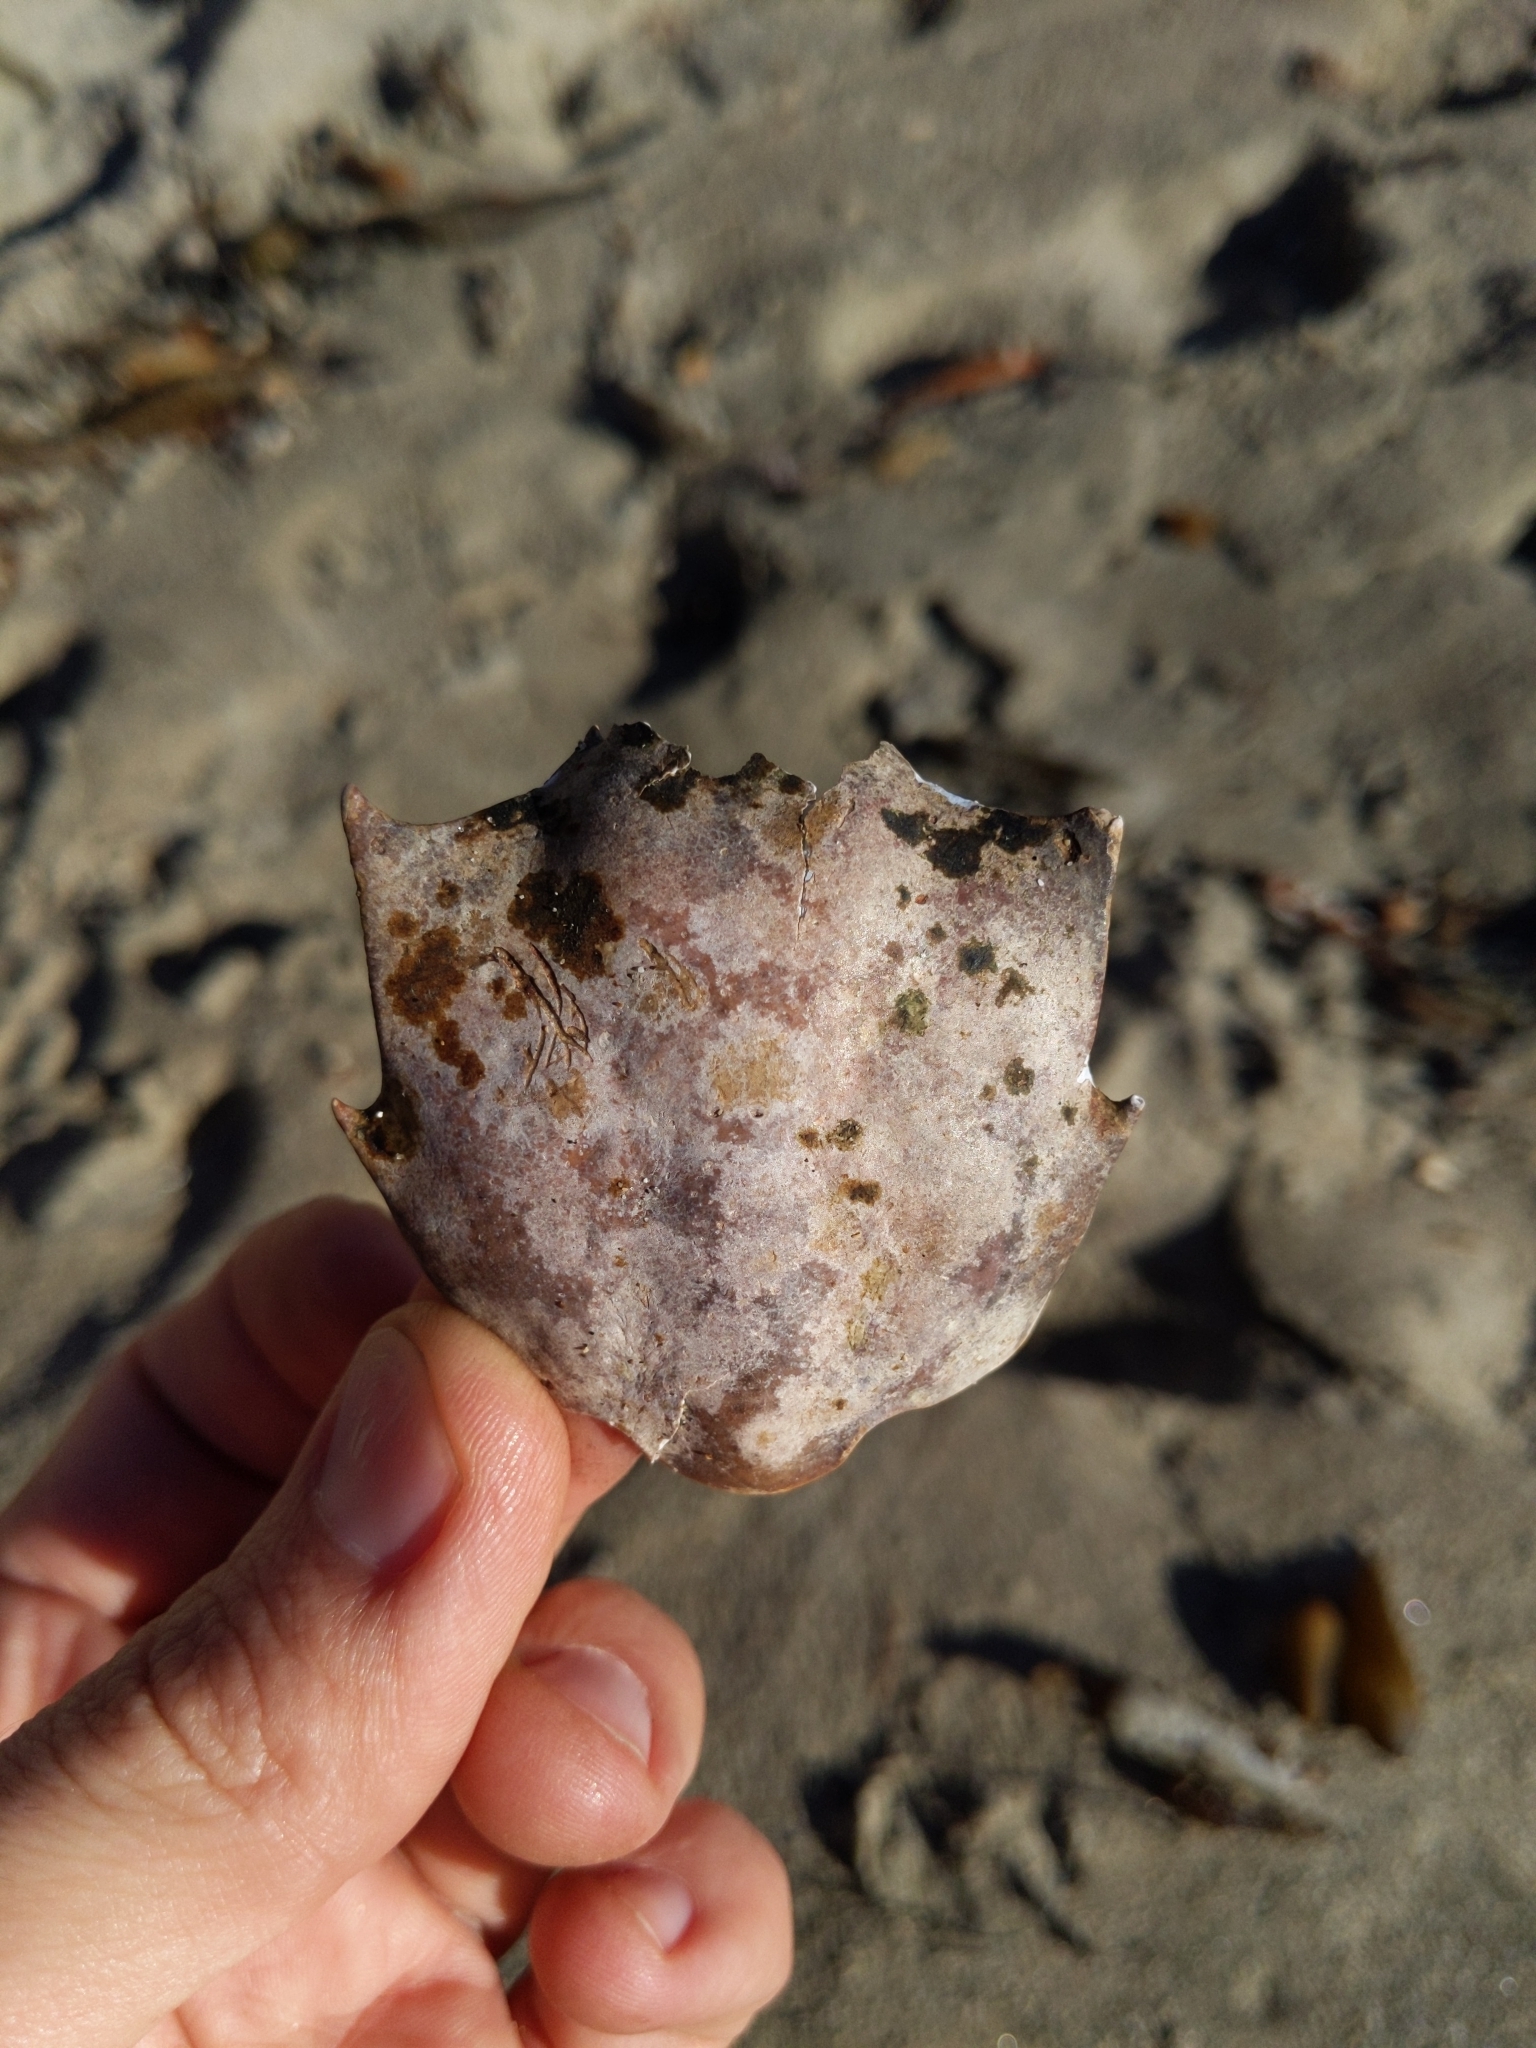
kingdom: Animalia
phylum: Arthropoda
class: Malacostraca
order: Decapoda
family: Epialtidae
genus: Pugettia
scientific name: Pugettia producta
